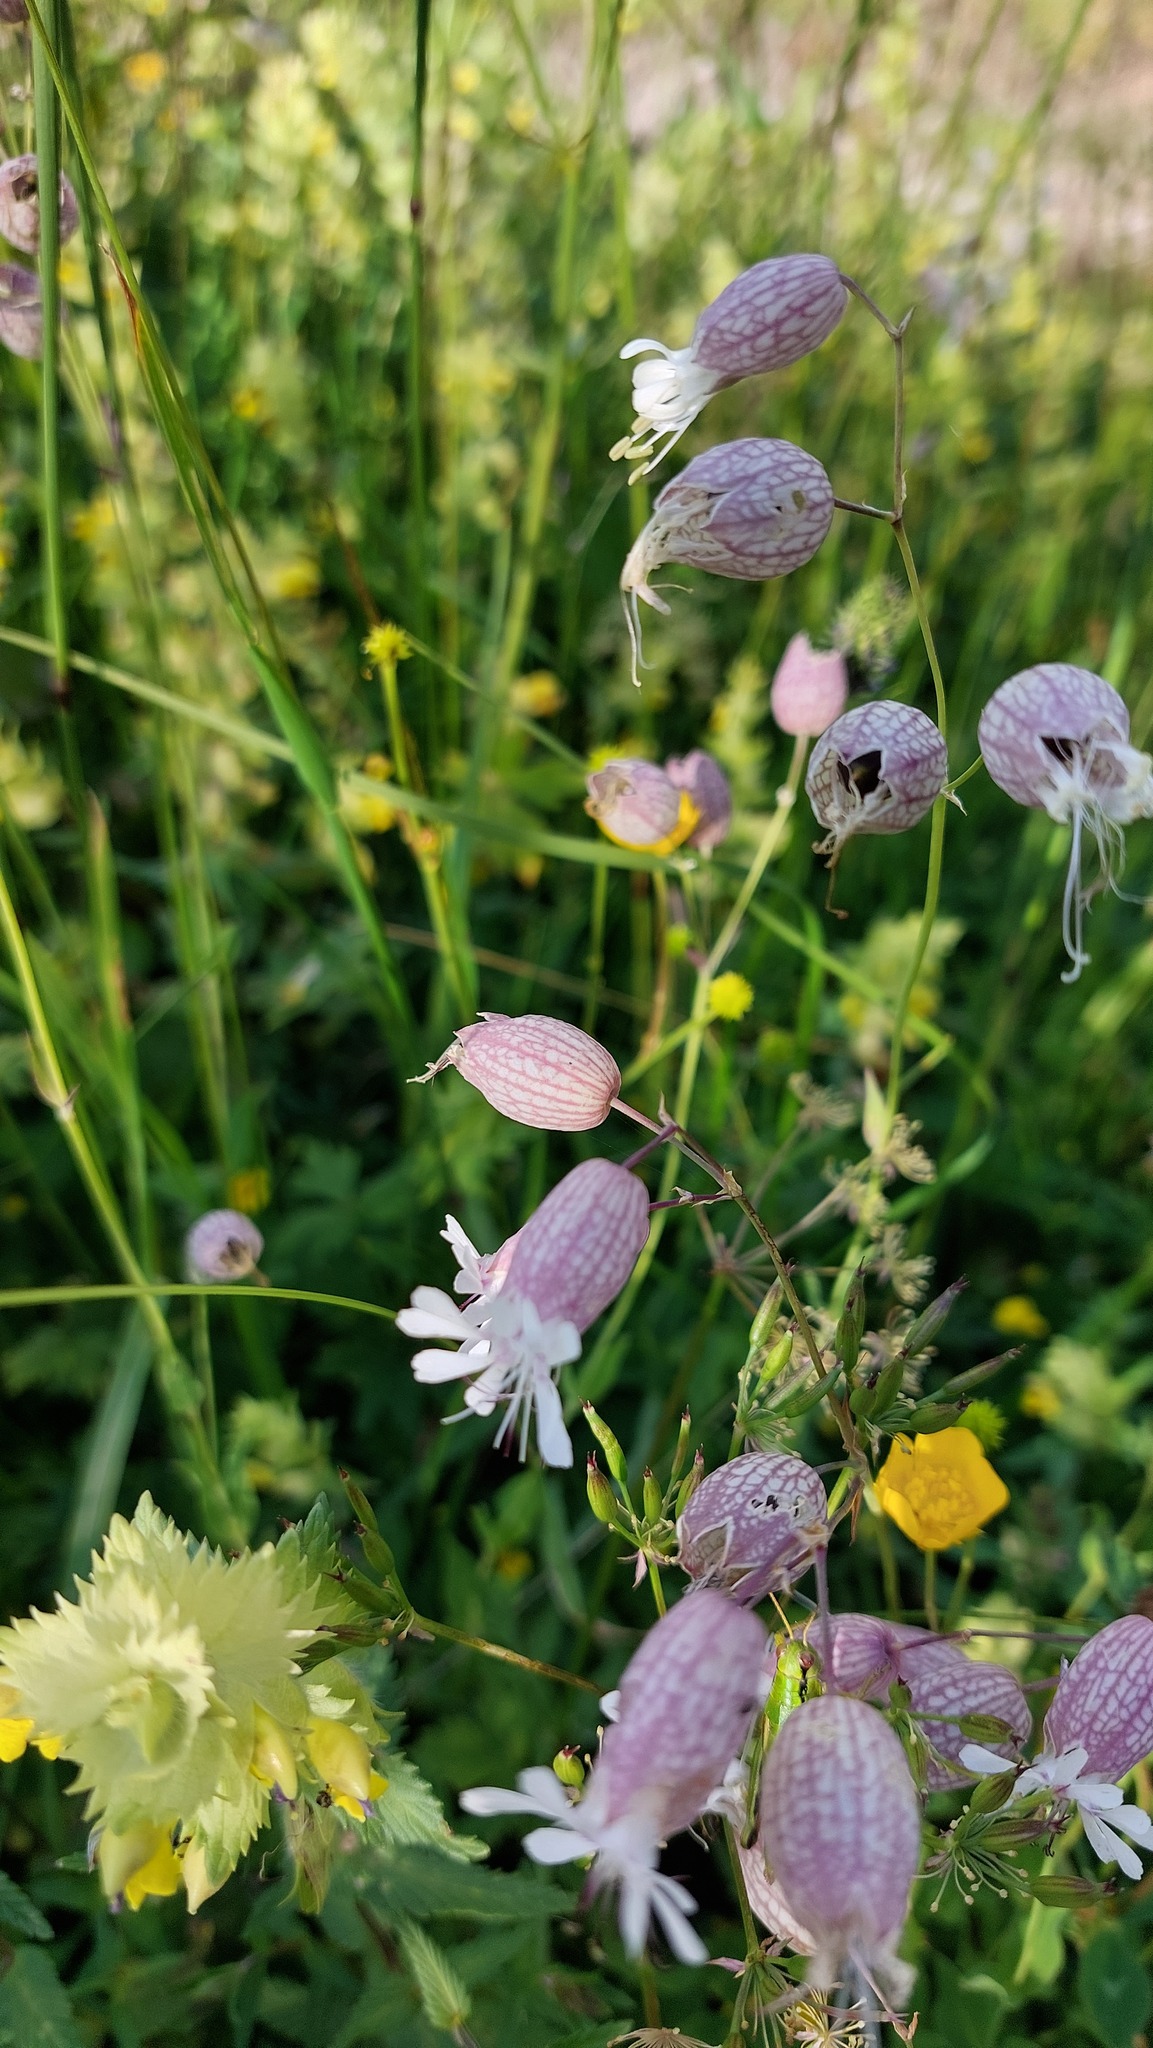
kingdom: Plantae
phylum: Tracheophyta
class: Magnoliopsida
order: Caryophyllales
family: Caryophyllaceae
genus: Silene
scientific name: Silene vulgaris
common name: Bladder campion
